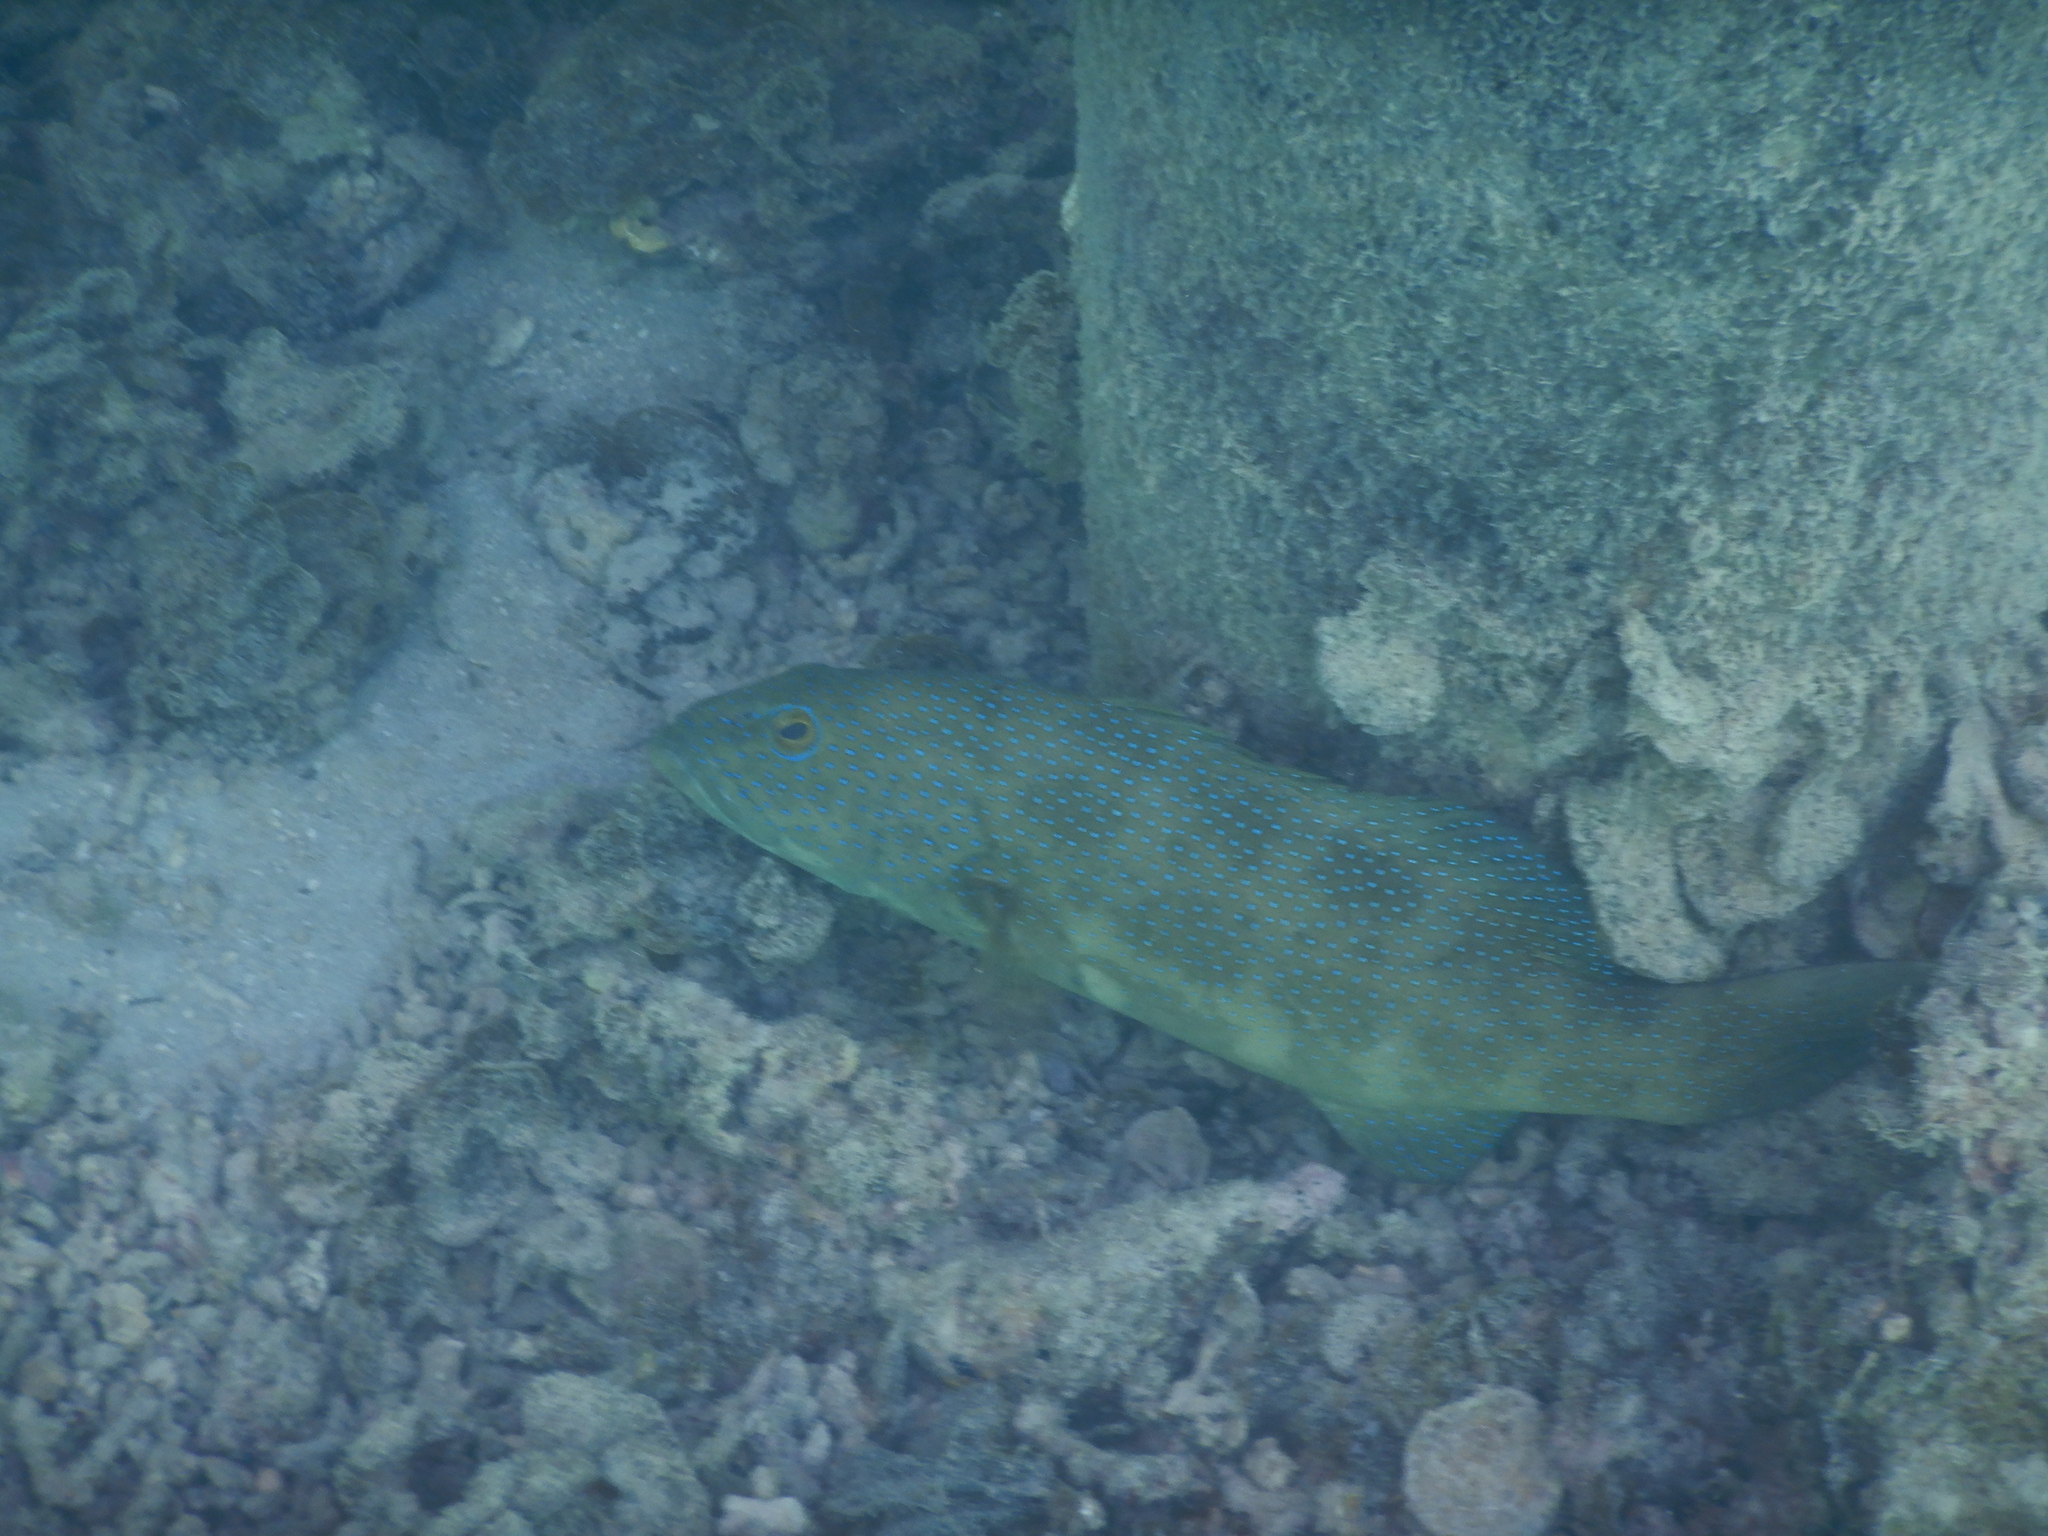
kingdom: Animalia
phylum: Chordata
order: Perciformes
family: Serranidae
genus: Plectropomus
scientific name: Plectropomus leopardus
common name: Coral trout
